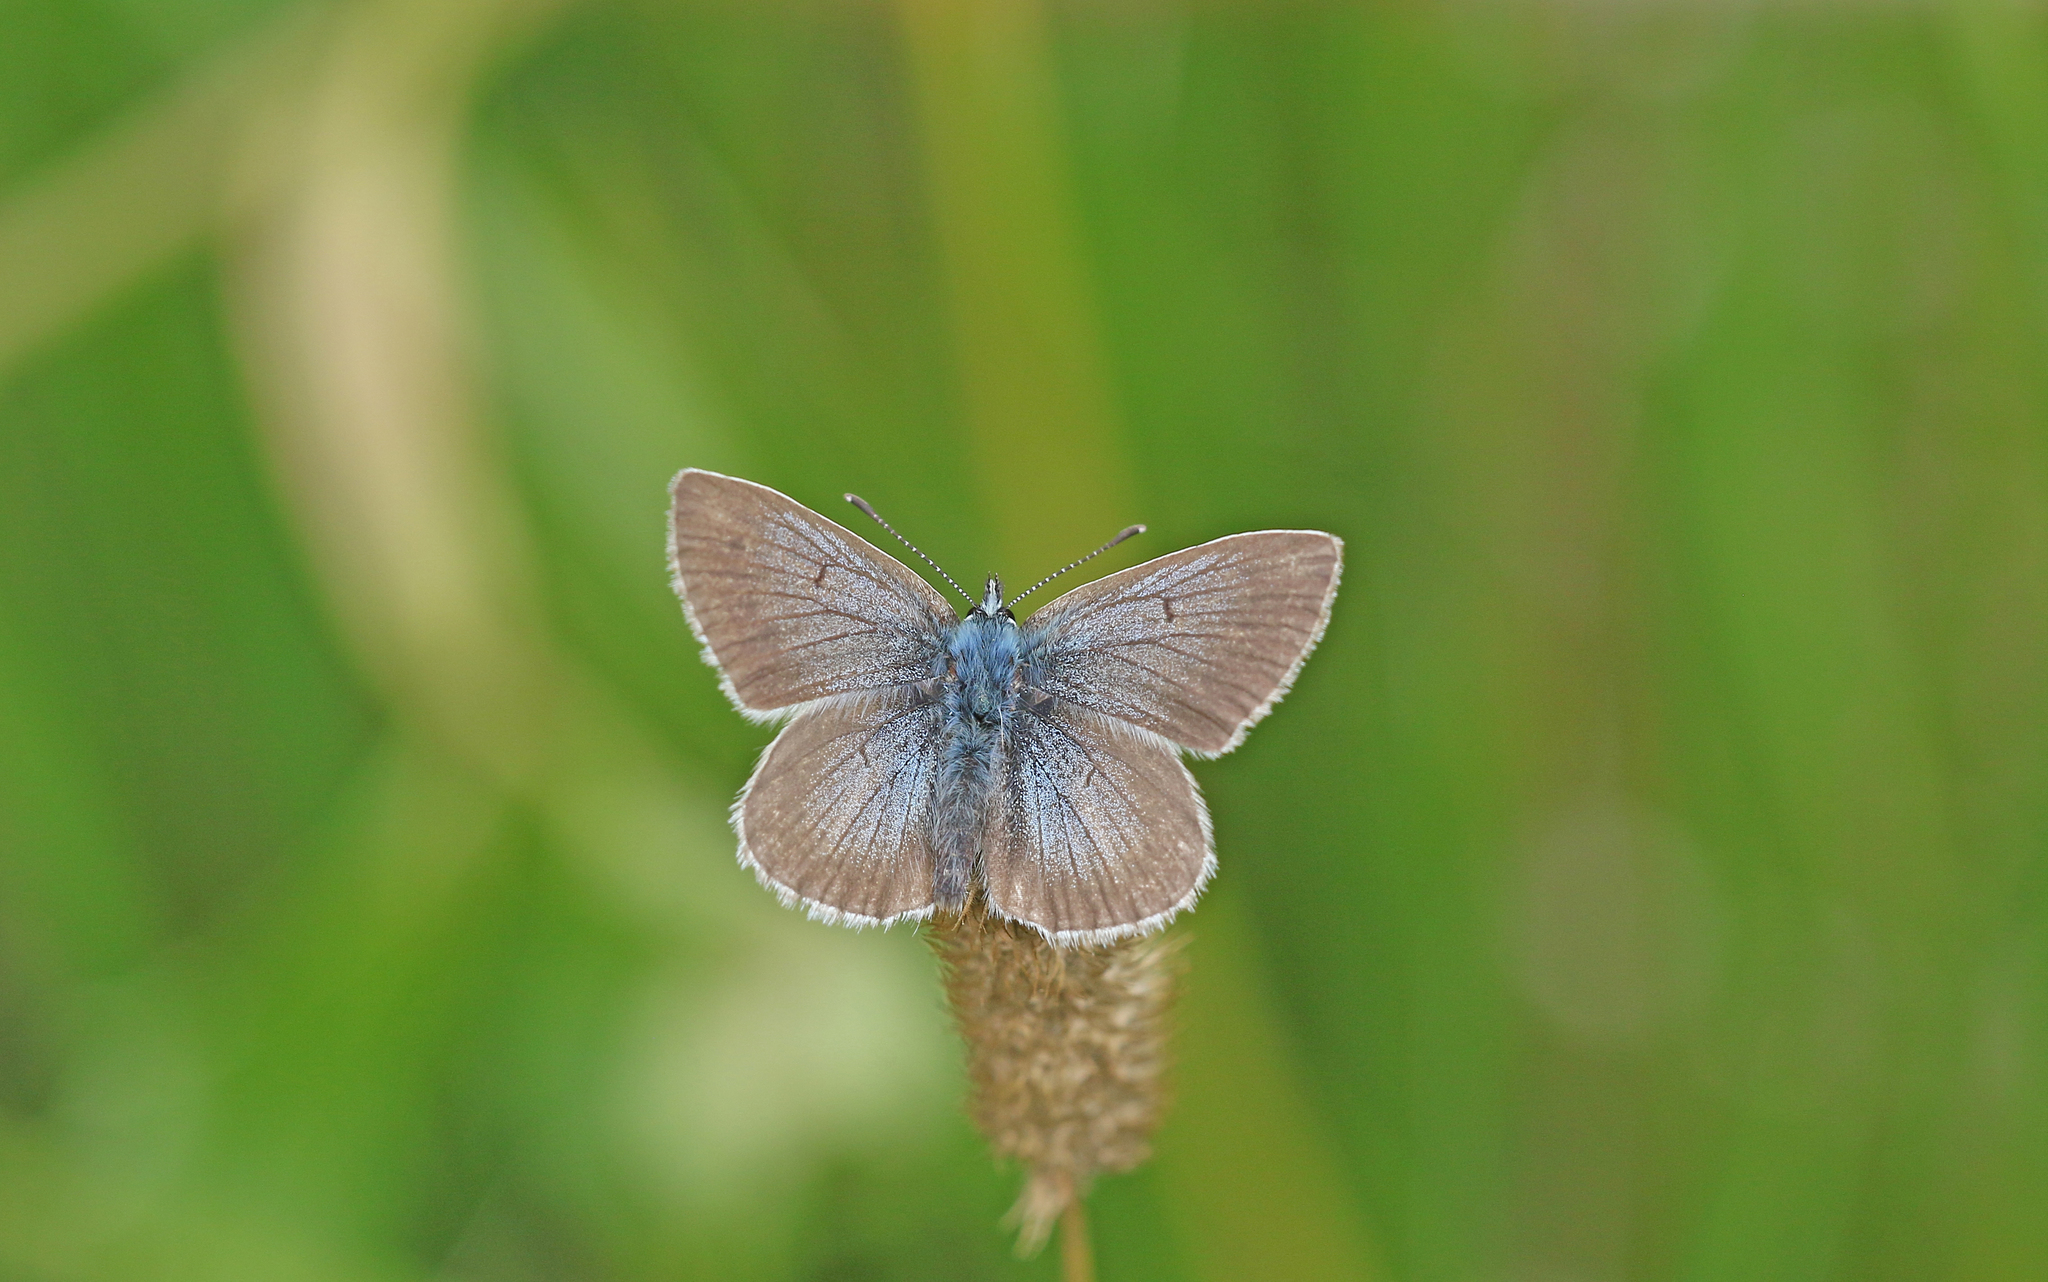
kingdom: Animalia
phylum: Arthropoda
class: Insecta
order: Lepidoptera
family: Lycaenidae
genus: Pseudoaricia
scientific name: Pseudoaricia nicias
